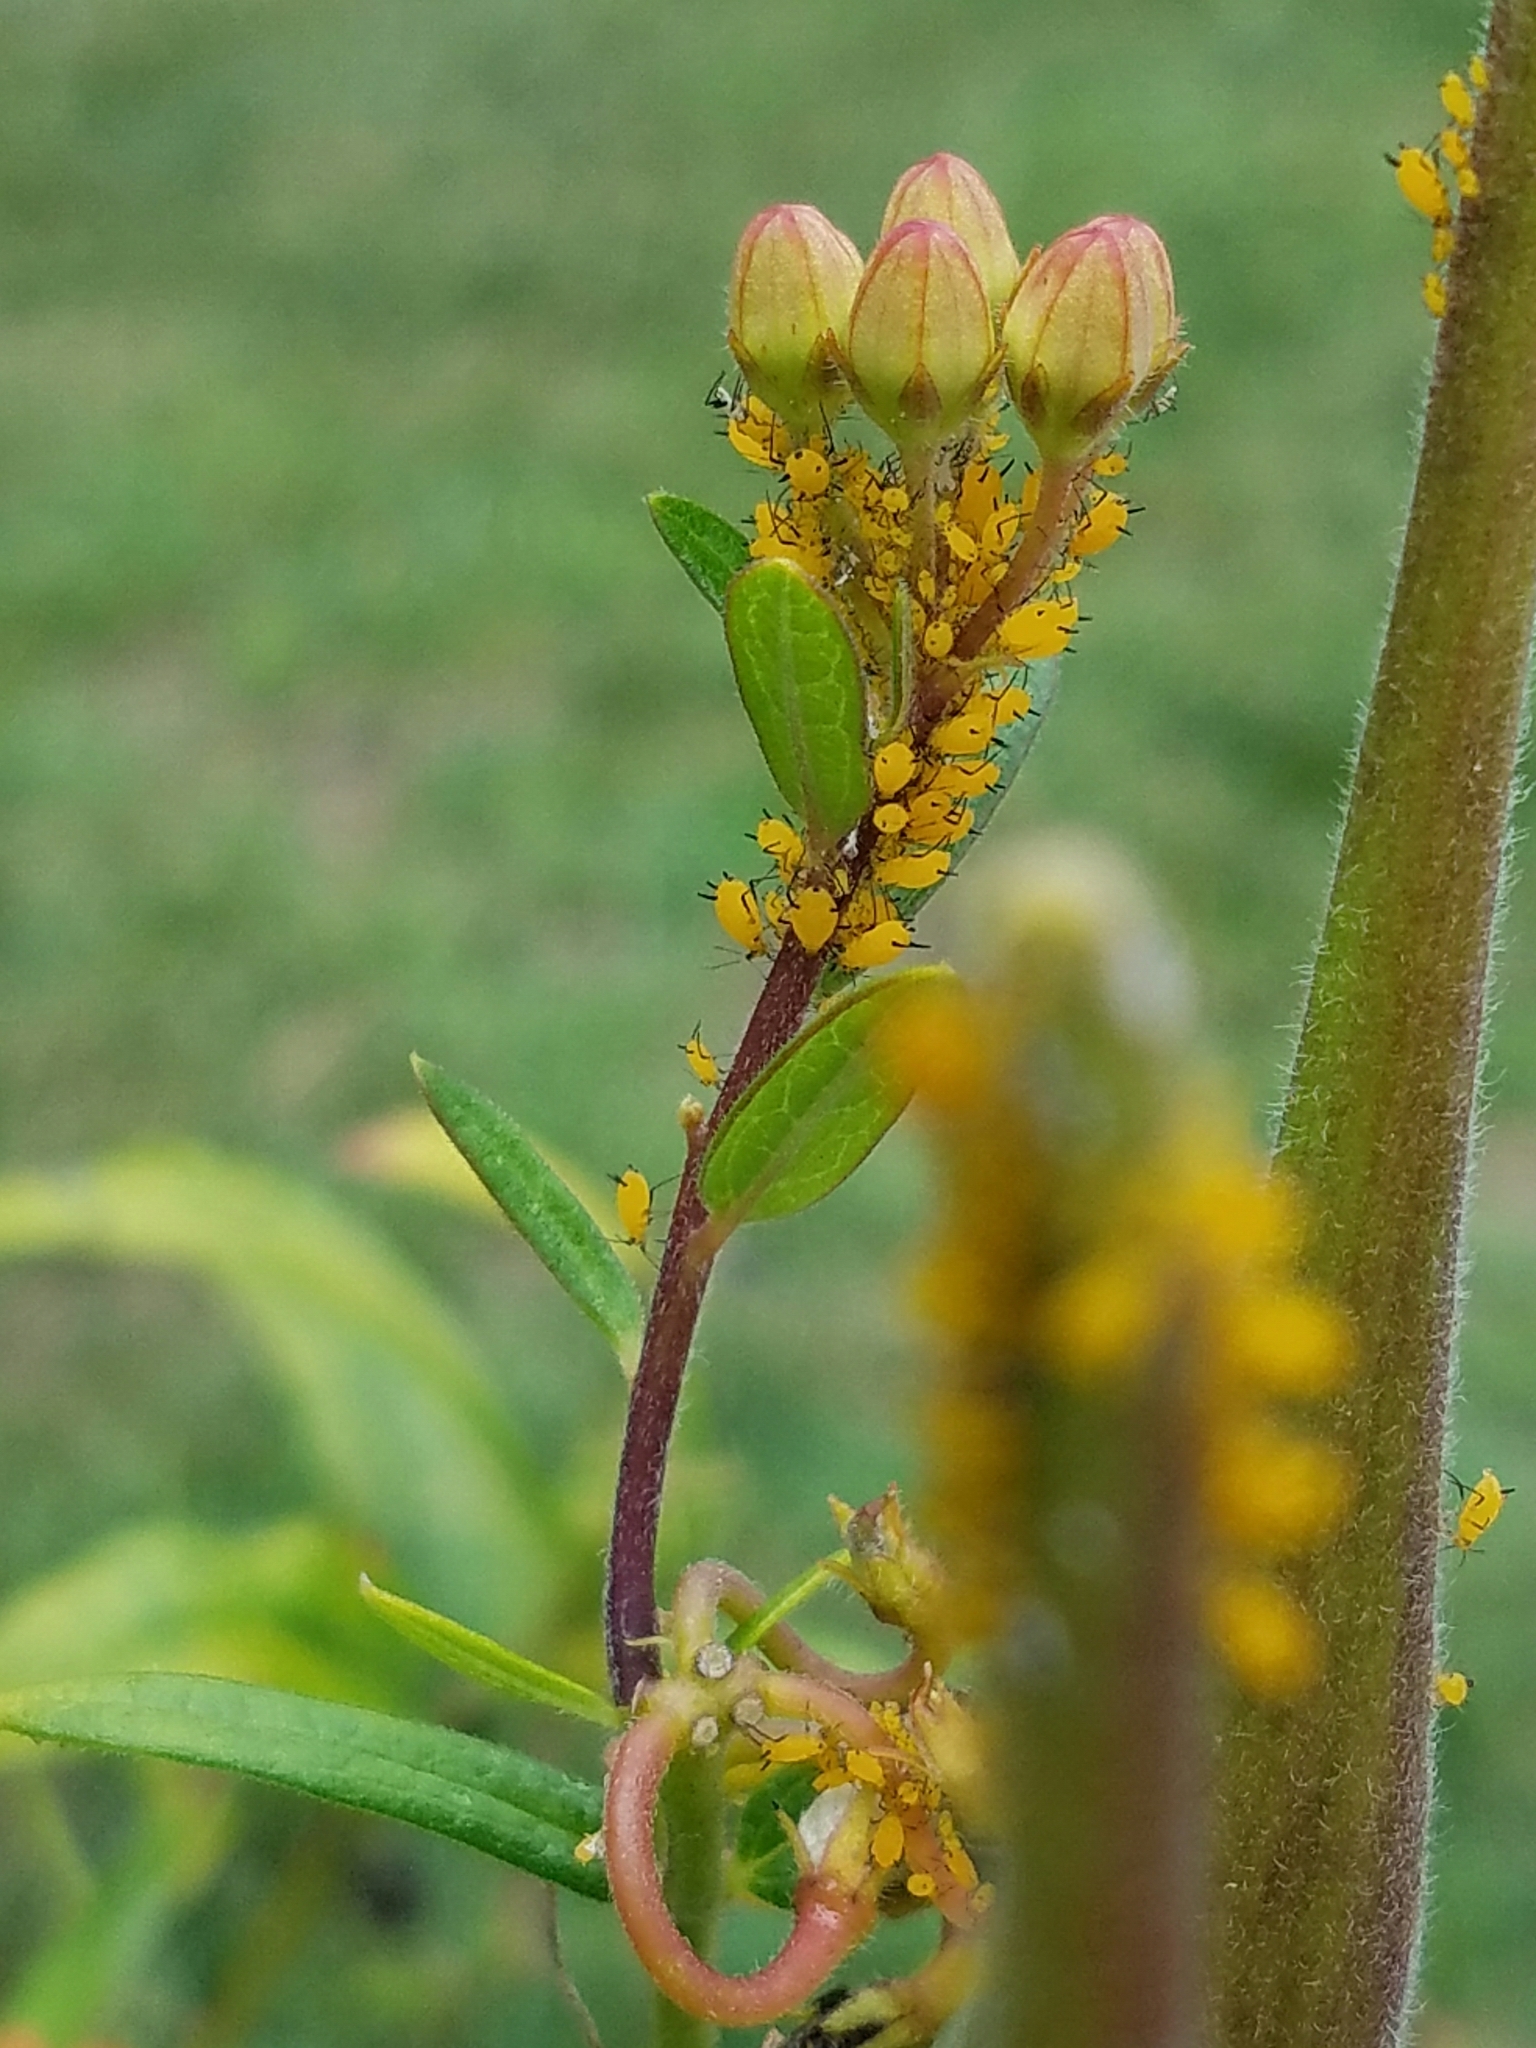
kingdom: Animalia
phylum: Arthropoda
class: Insecta
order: Hemiptera
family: Aphididae
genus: Aphis
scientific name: Aphis nerii
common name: Oleander aphid
